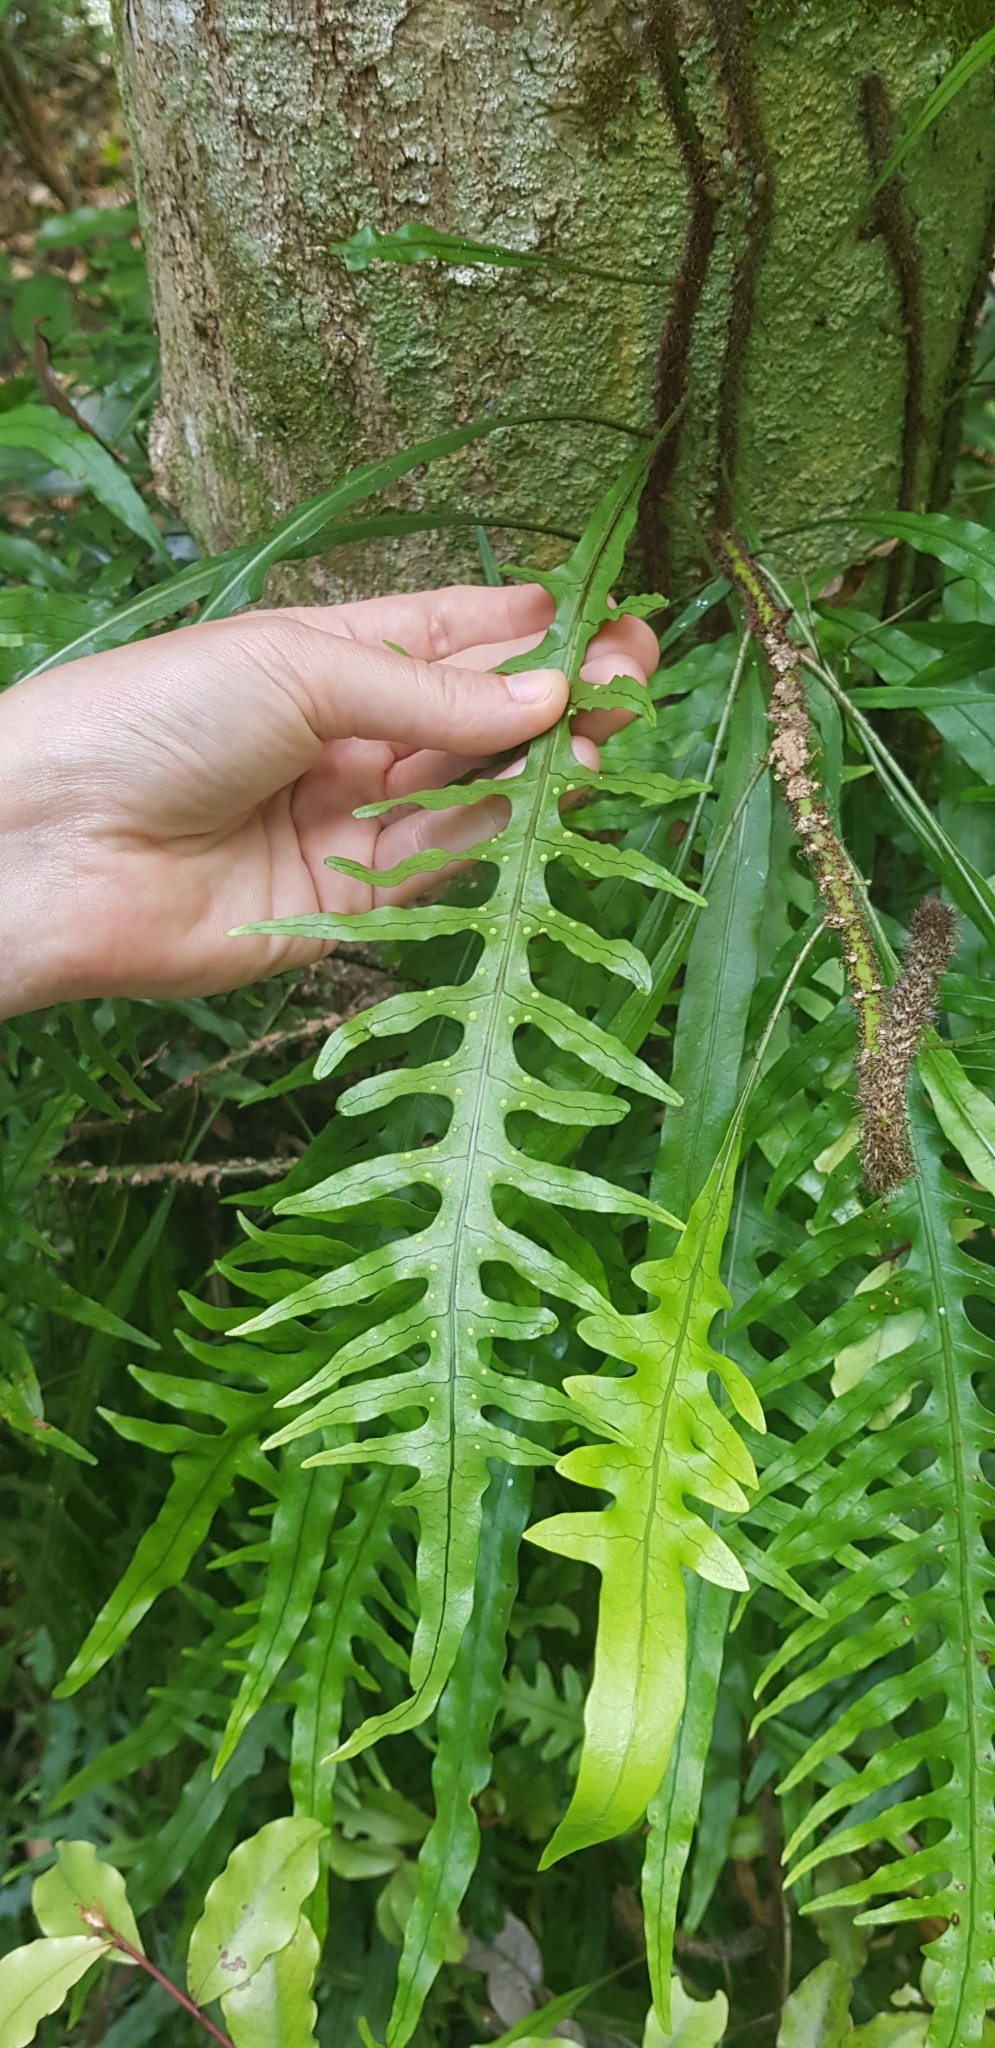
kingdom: Plantae
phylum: Tracheophyta
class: Polypodiopsida
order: Polypodiales
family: Polypodiaceae
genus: Lecanopteris
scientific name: Lecanopteris scandens
